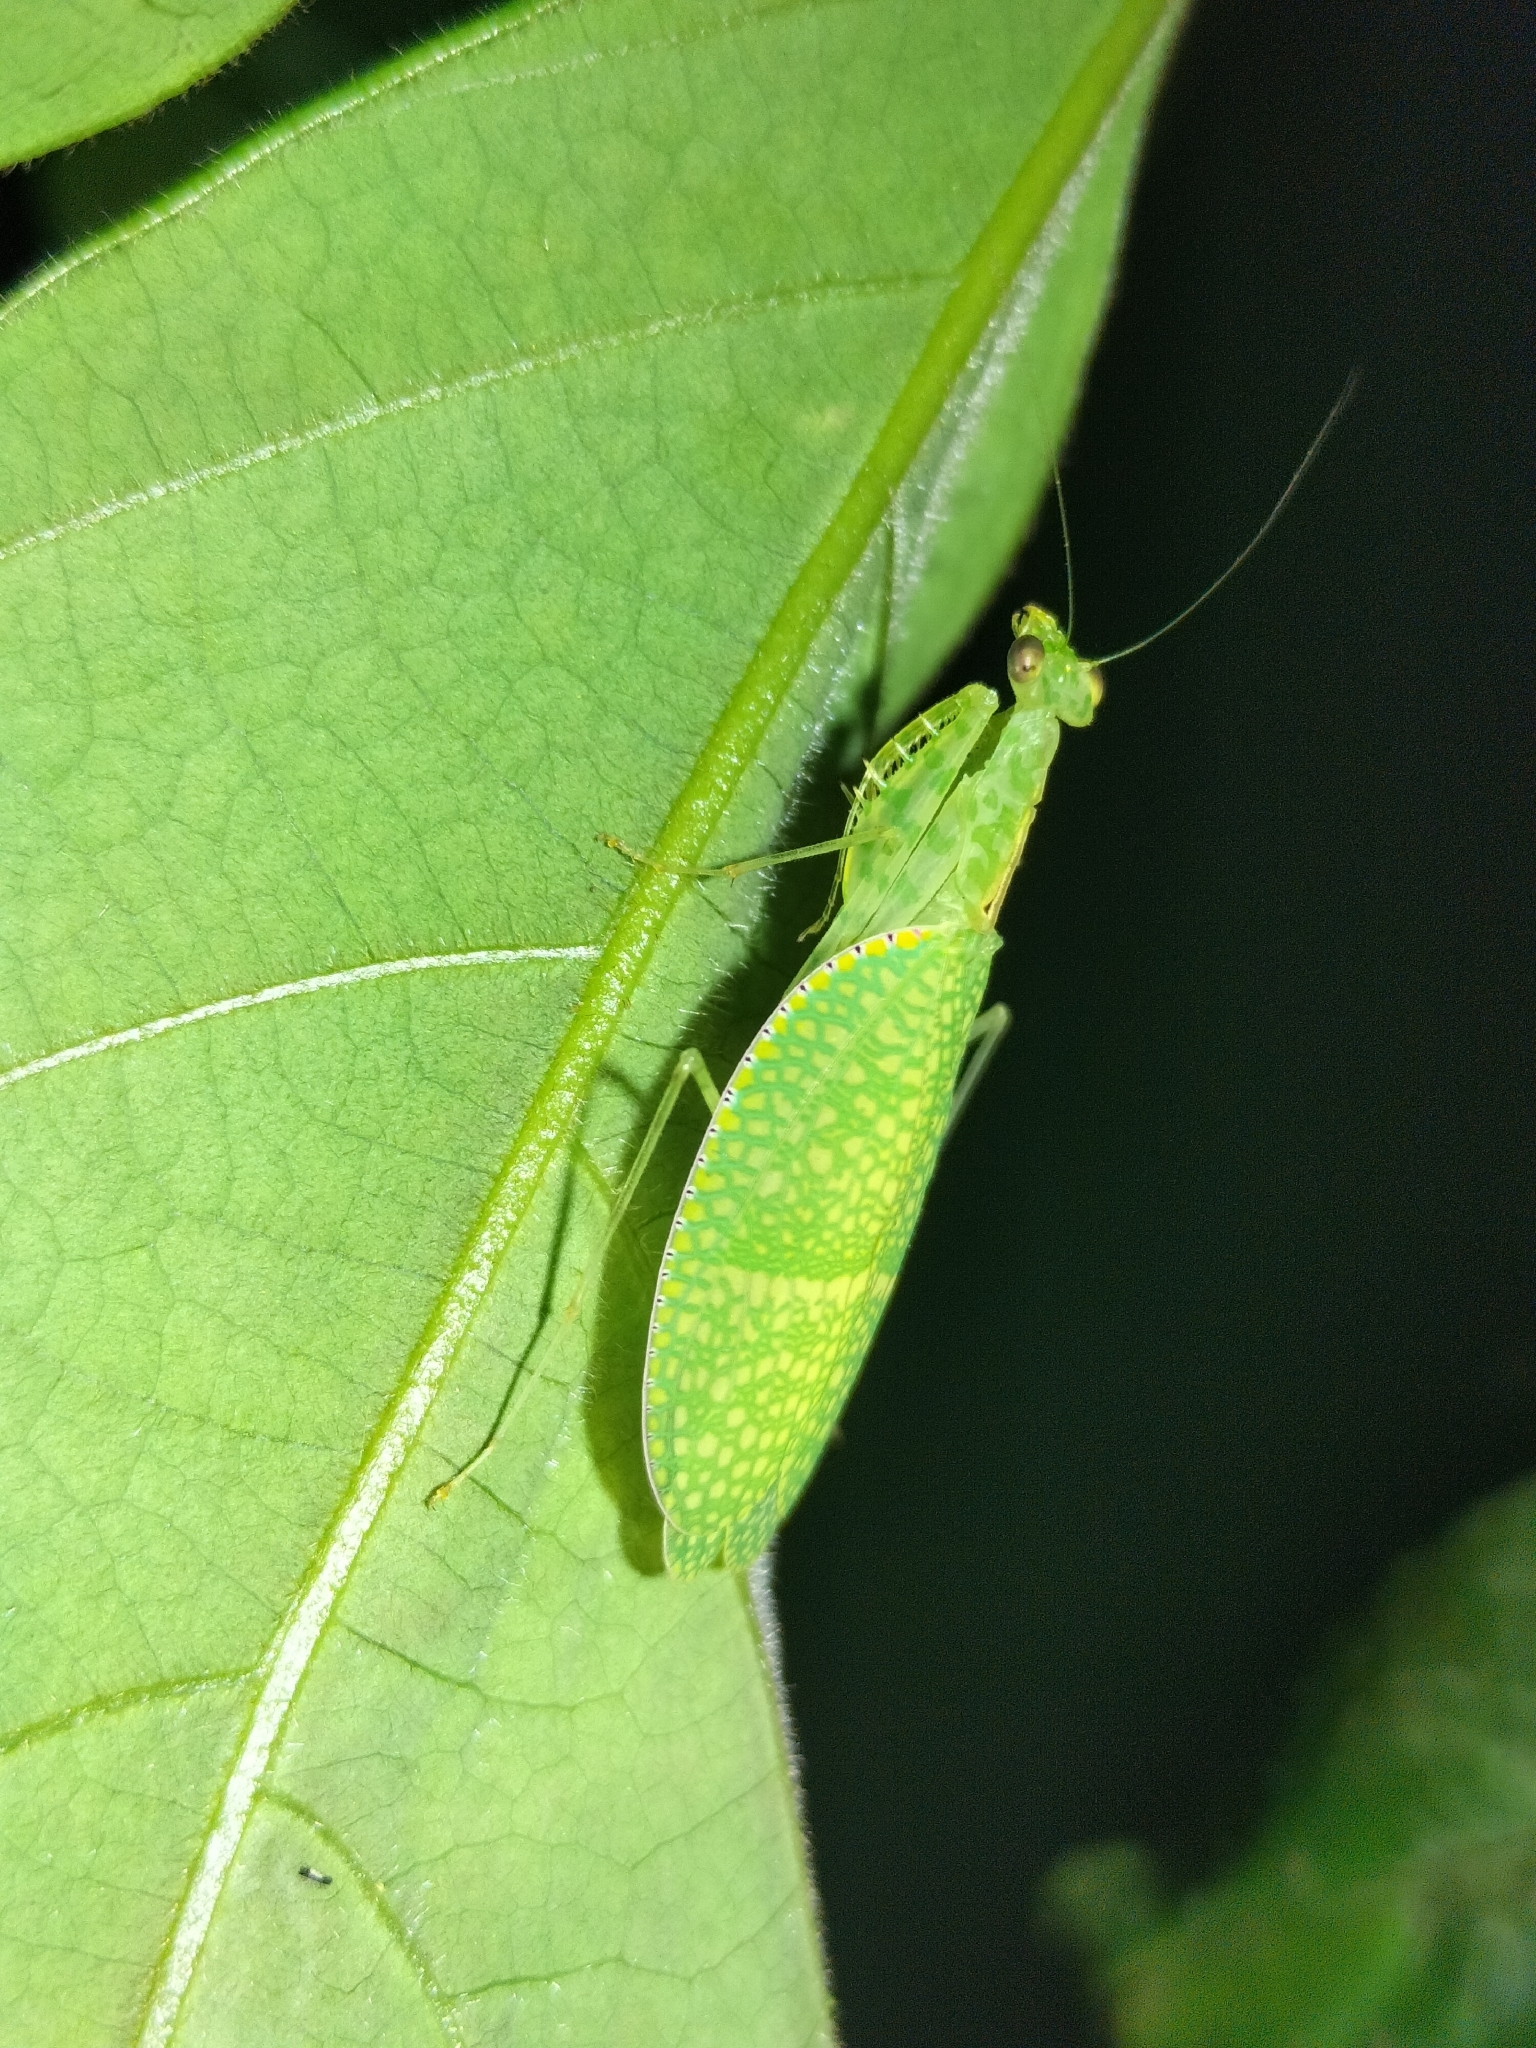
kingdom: Animalia
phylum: Arthropoda
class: Insecta
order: Mantodea
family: Nanomantidae
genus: Neomantis
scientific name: Neomantis australis
